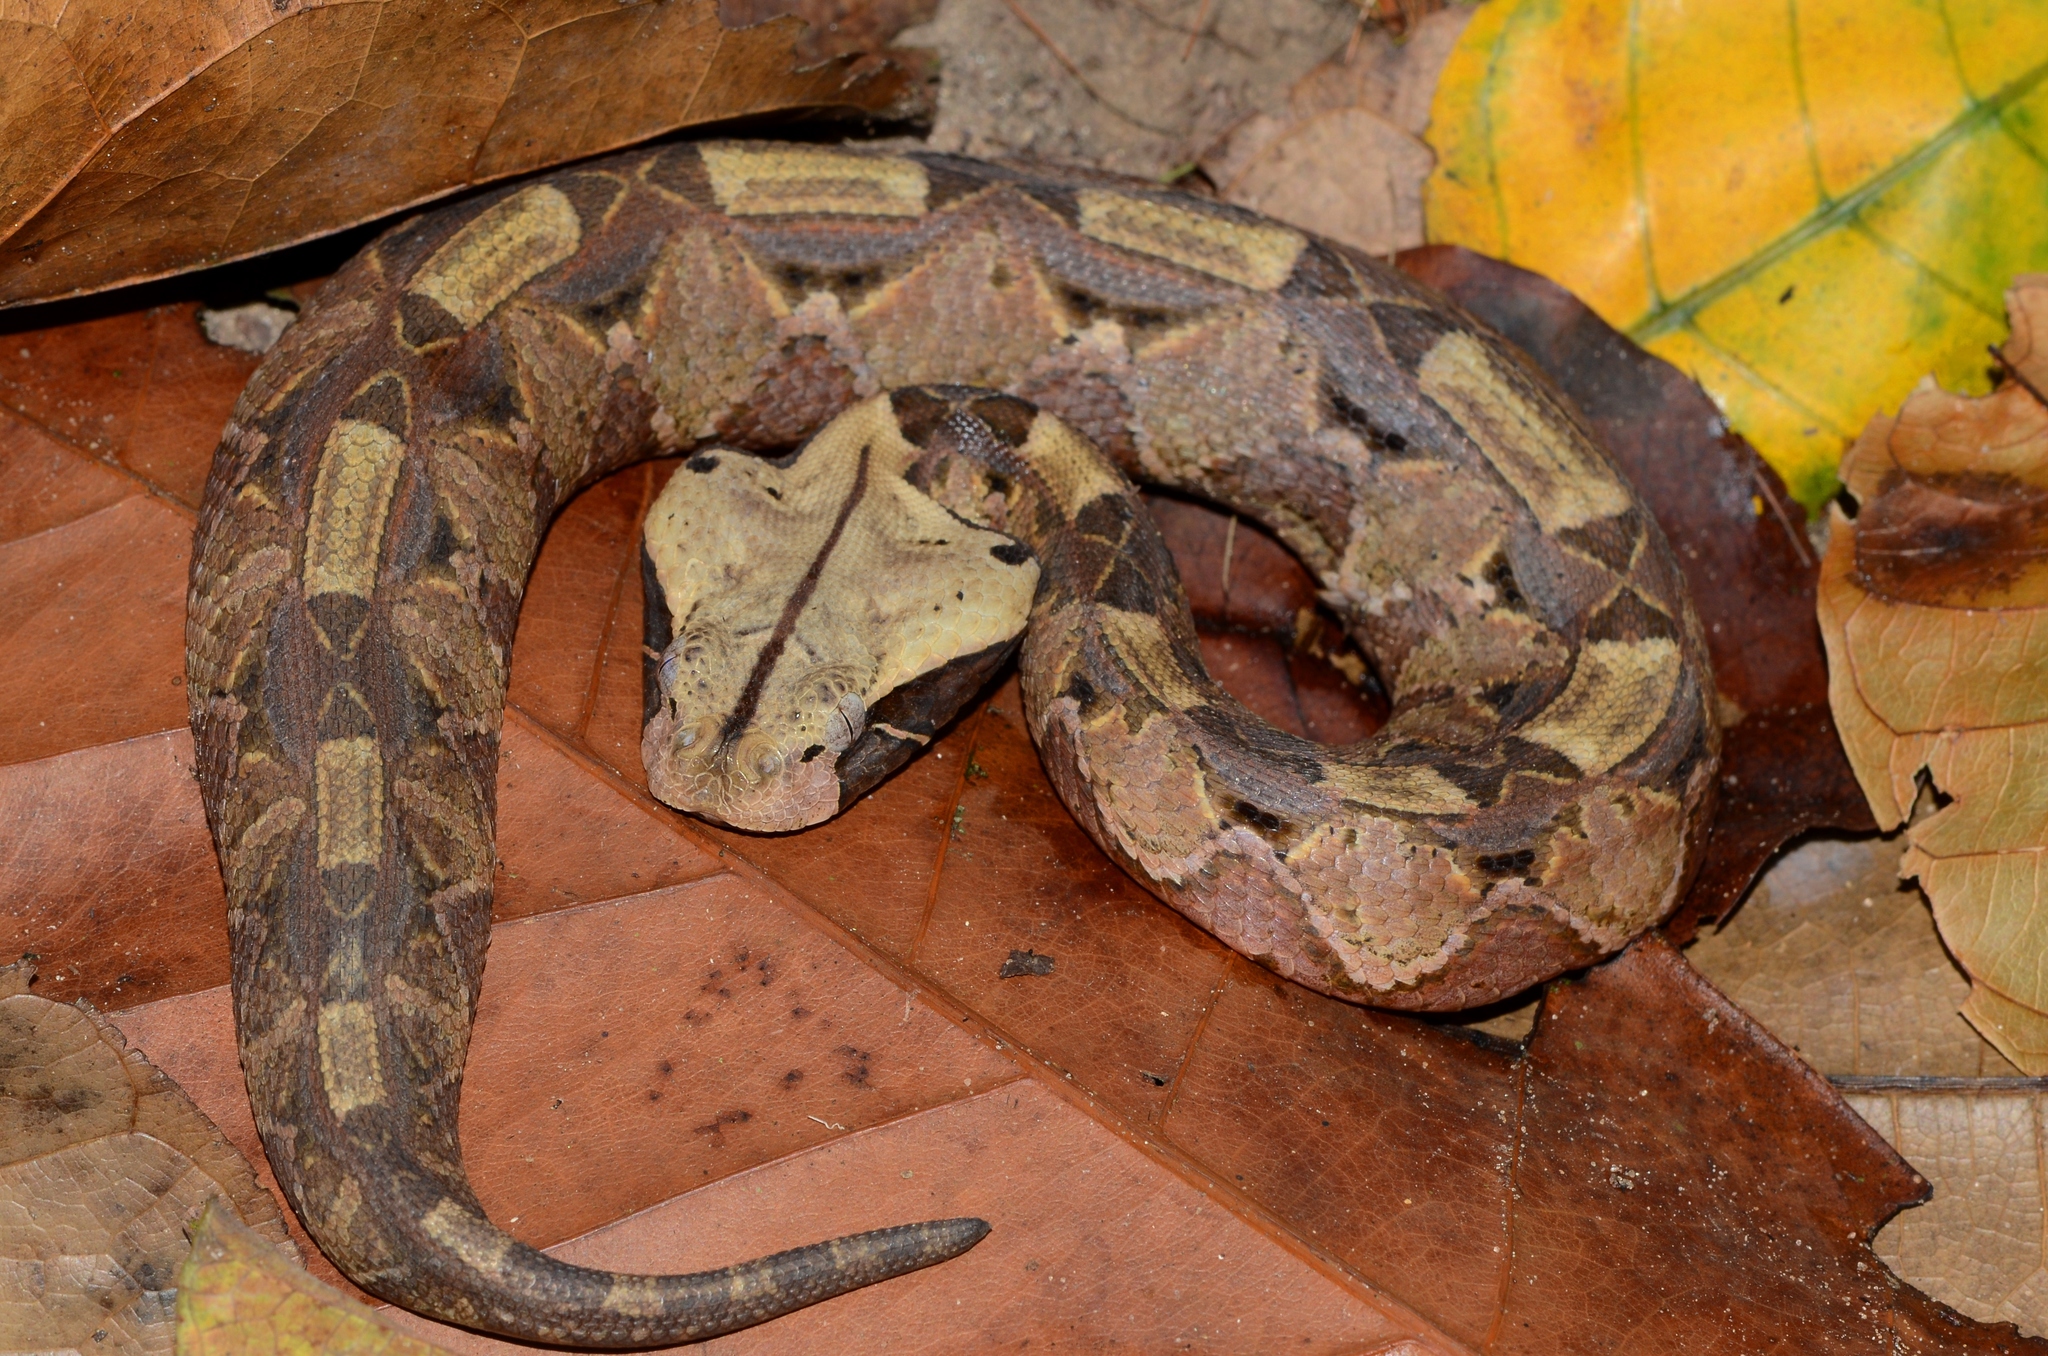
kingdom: Animalia
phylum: Chordata
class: Squamata
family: Viperidae
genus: Bitis
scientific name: Bitis gabonica
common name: Gaboon adder
